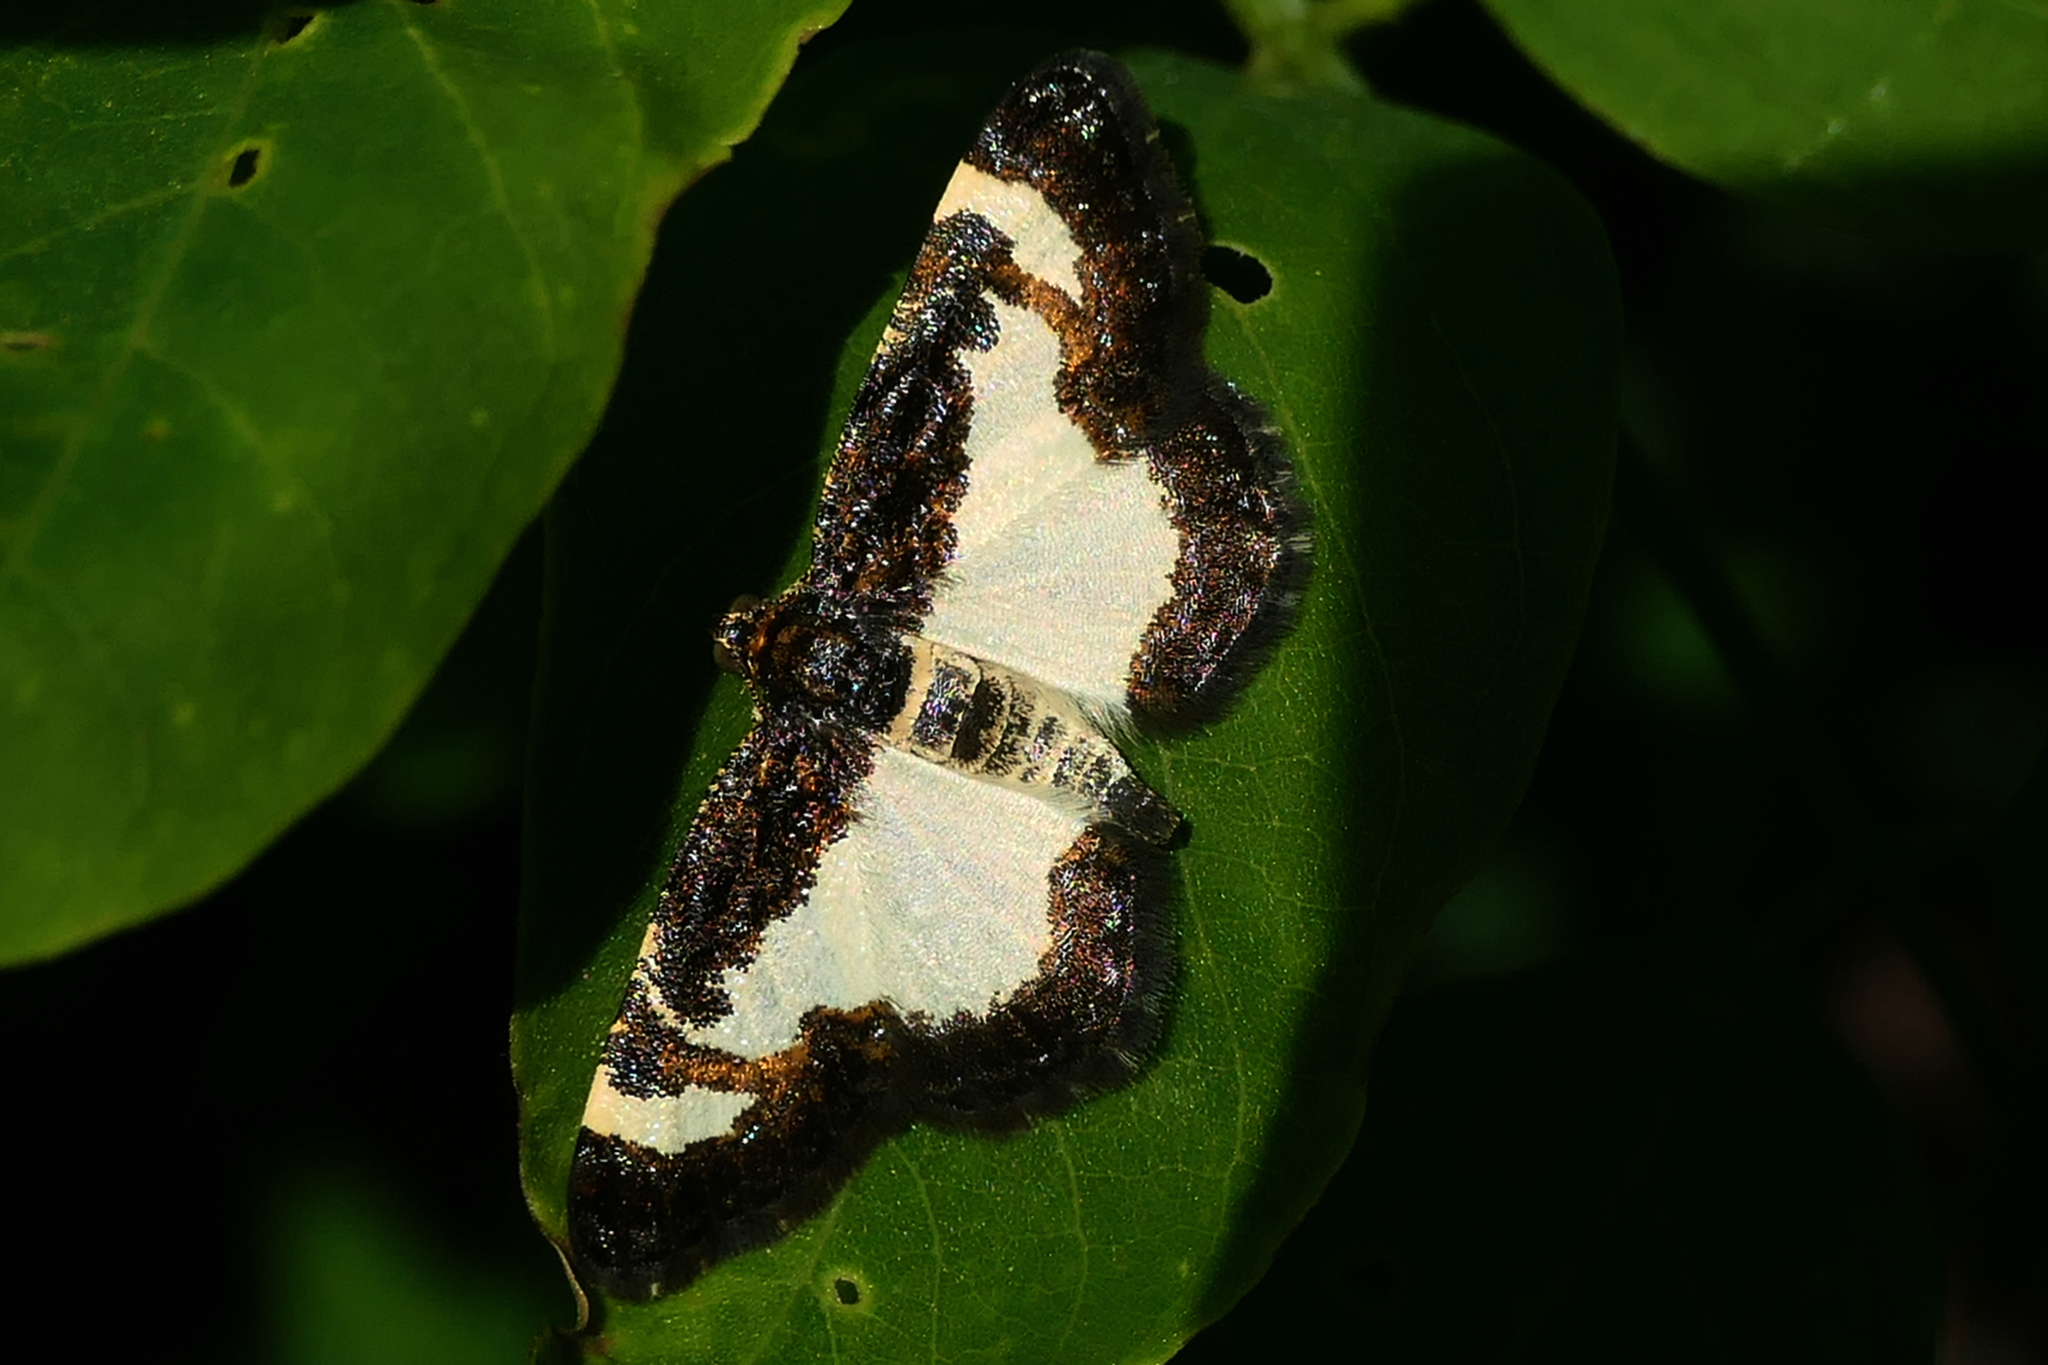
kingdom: Animalia
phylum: Arthropoda
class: Insecta
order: Lepidoptera
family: Geometridae
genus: Heliomata
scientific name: Heliomata cycladata
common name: Common spring moth
